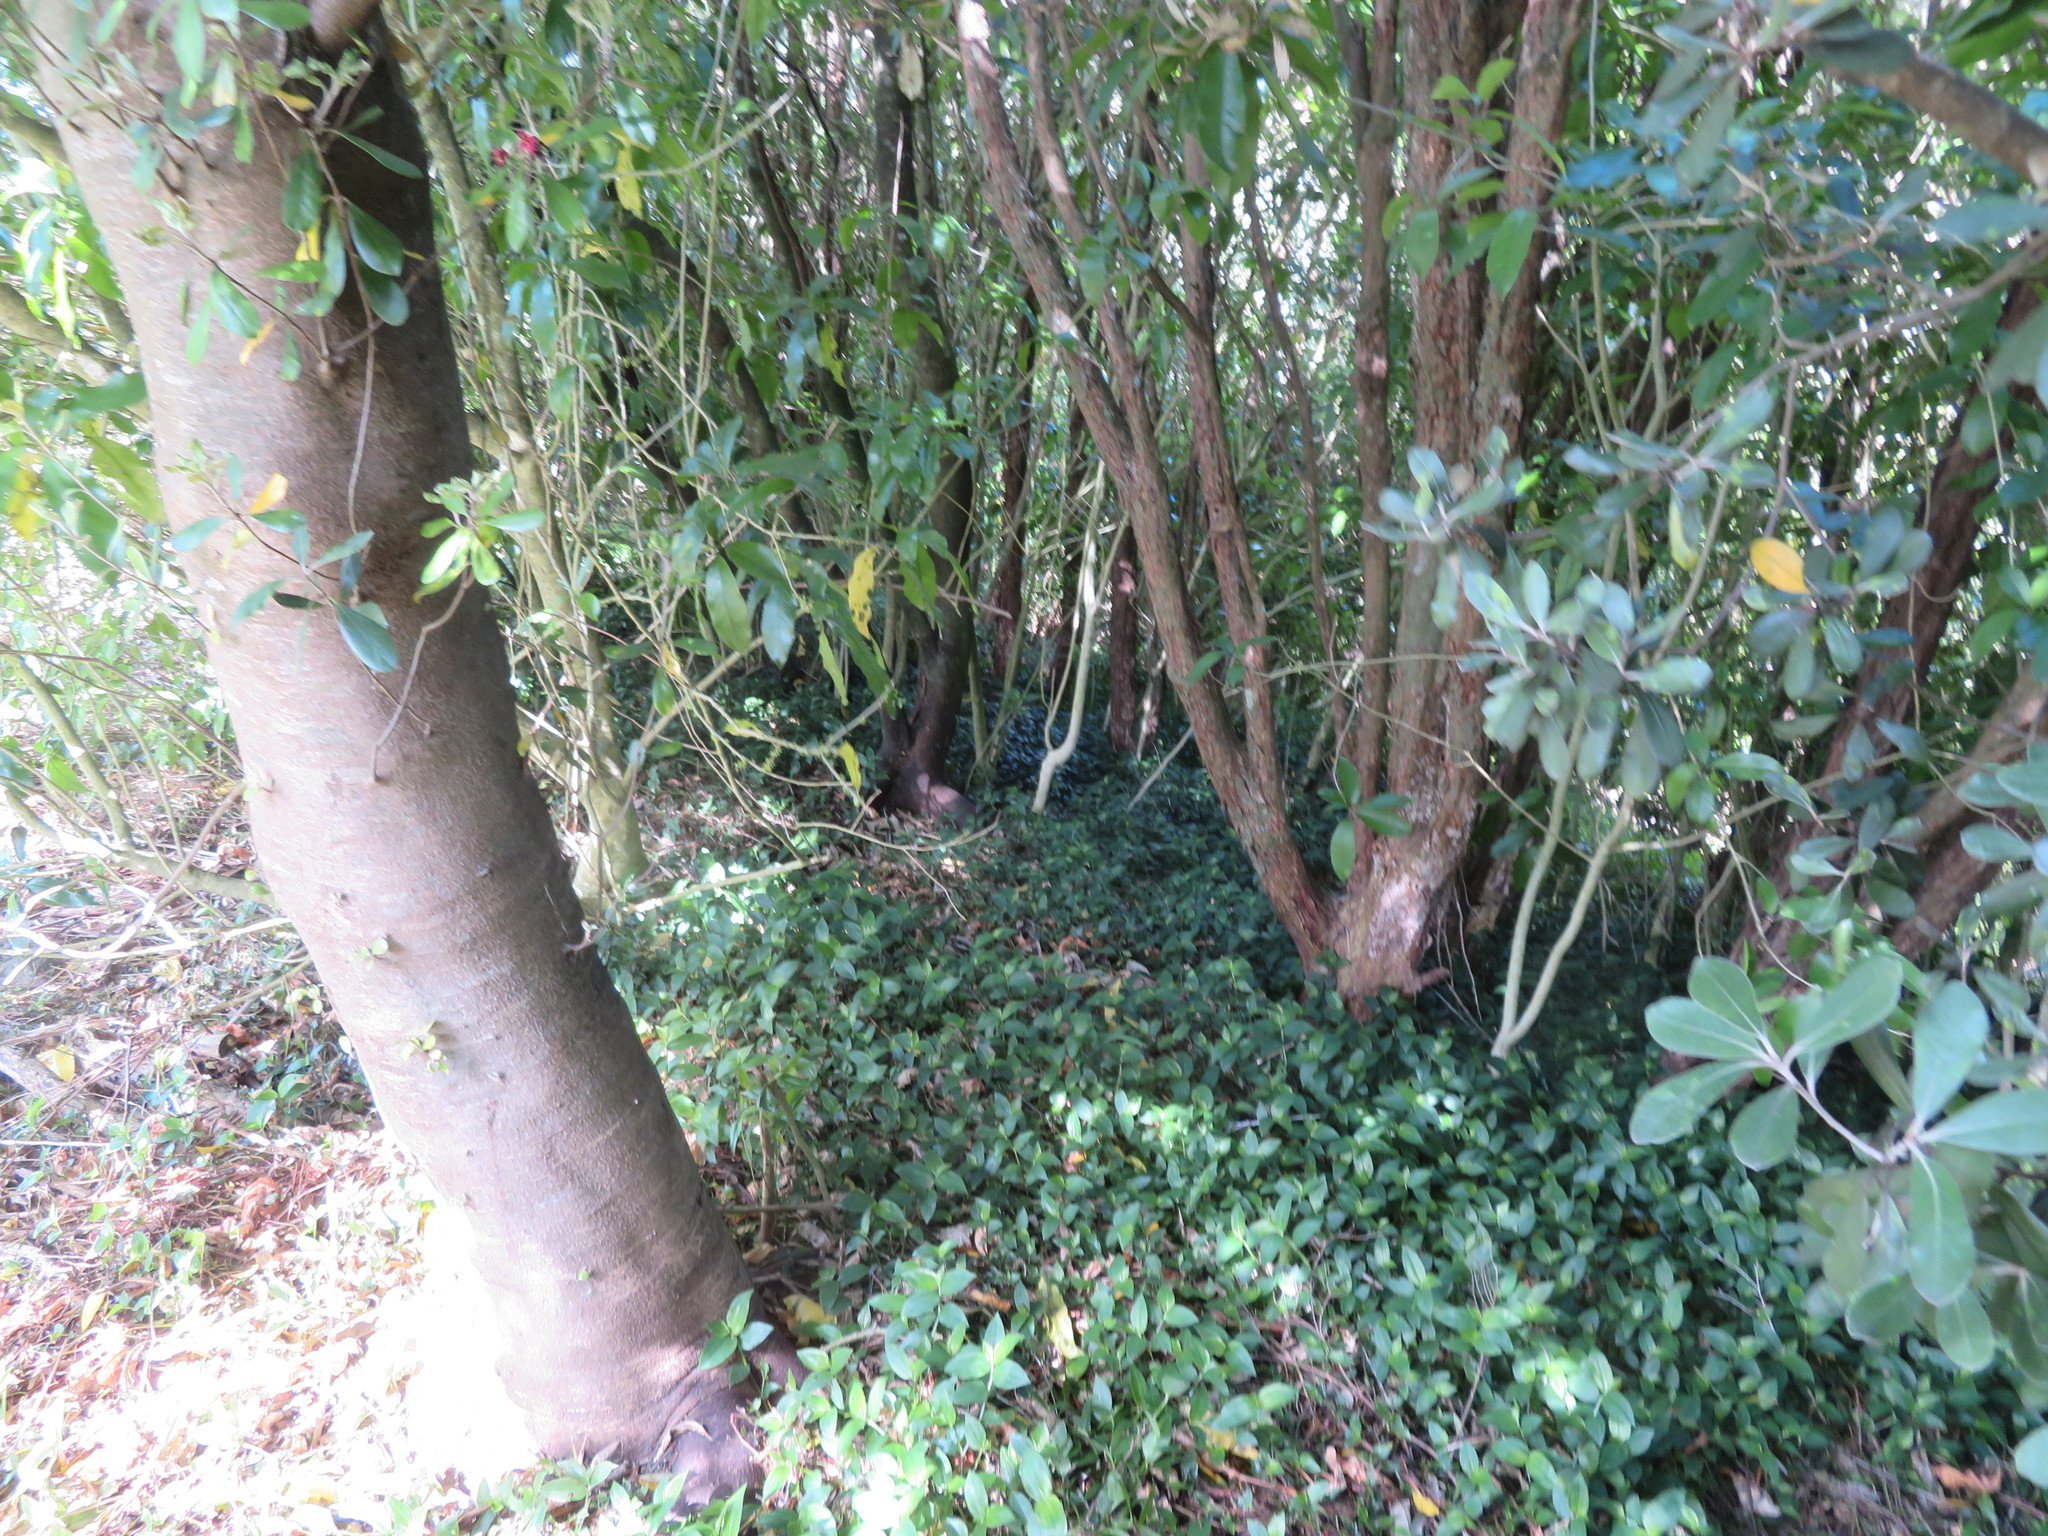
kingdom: Plantae
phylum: Tracheophyta
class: Liliopsida
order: Commelinales
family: Commelinaceae
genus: Tradescantia
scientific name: Tradescantia fluminensis
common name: Wandering-jew
